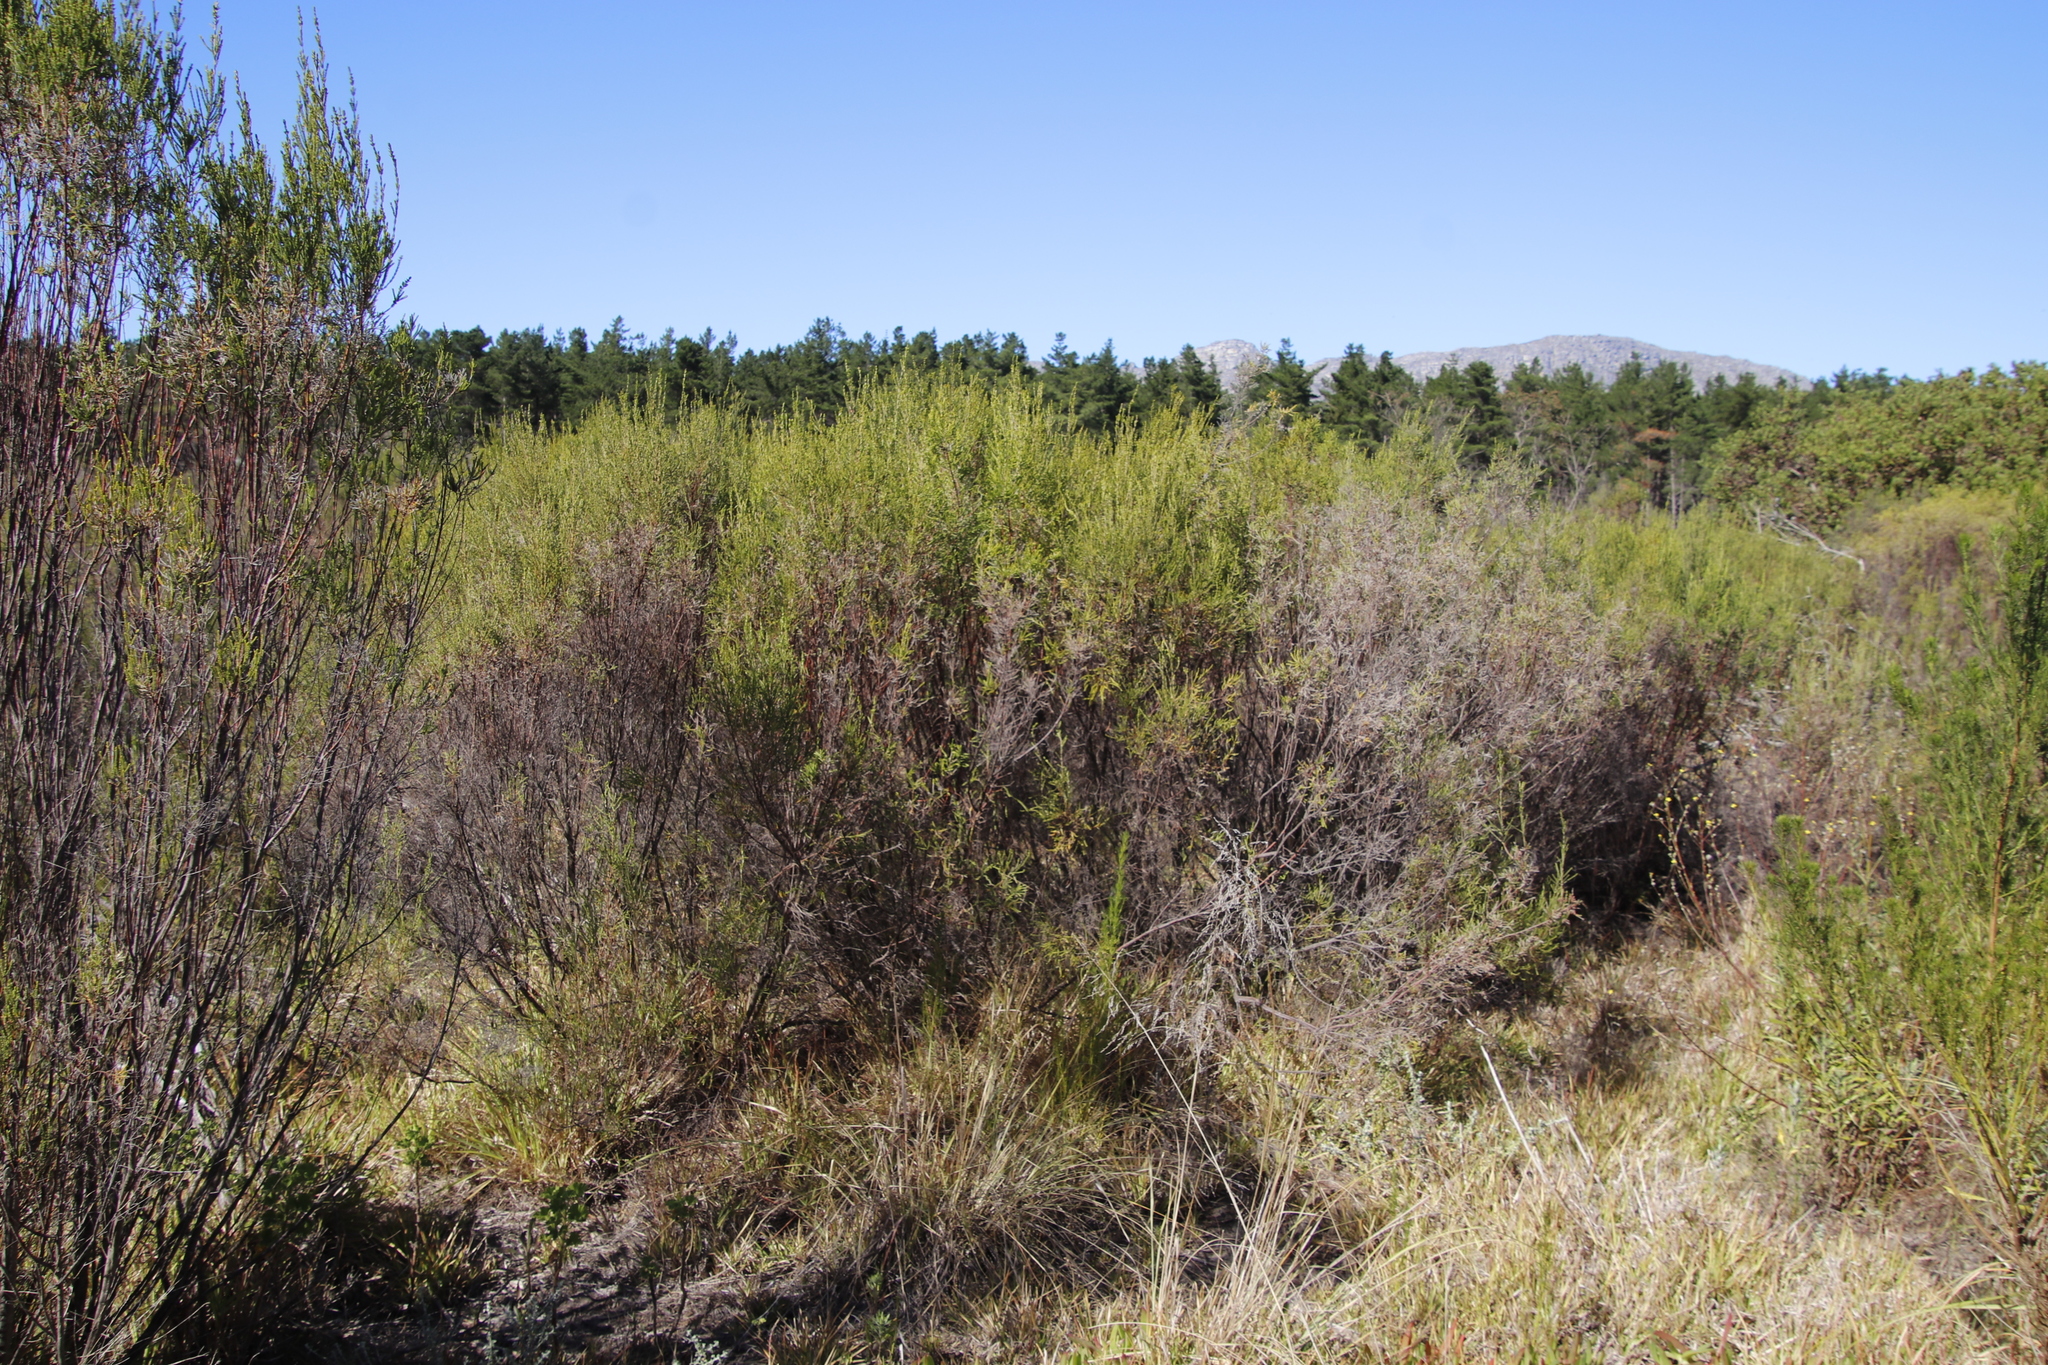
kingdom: Plantae
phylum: Tracheophyta
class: Magnoliopsida
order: Malvales
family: Thymelaeaceae
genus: Passerina
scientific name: Passerina corymbosa
